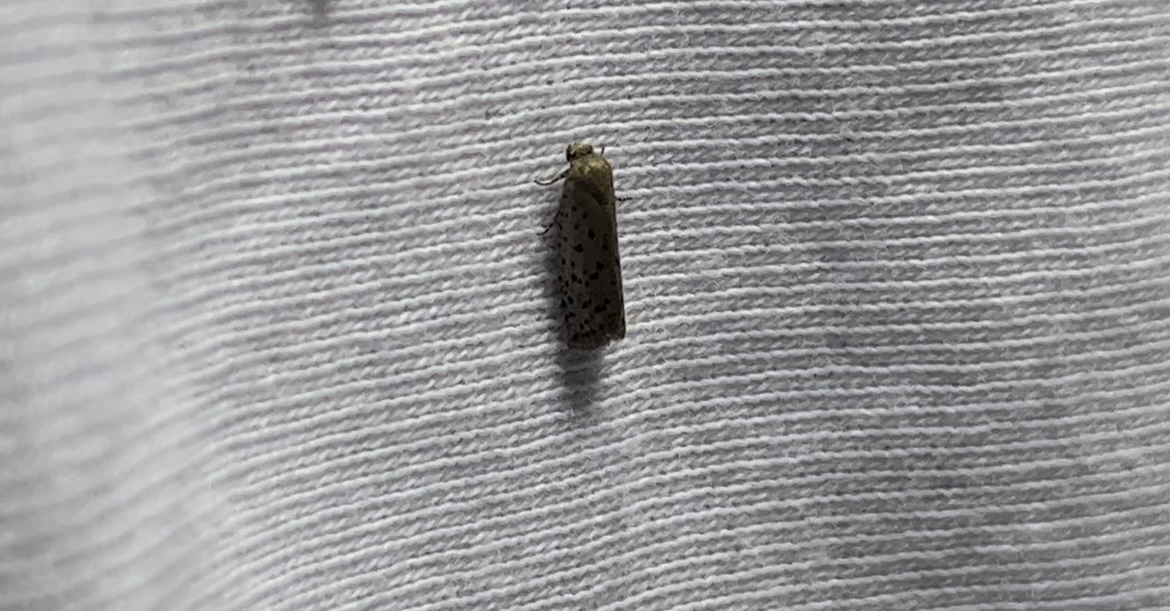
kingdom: Animalia
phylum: Arthropoda
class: Insecta
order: Lepidoptera
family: Galacticidae
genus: Homadaula
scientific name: Homadaula anisocentra
